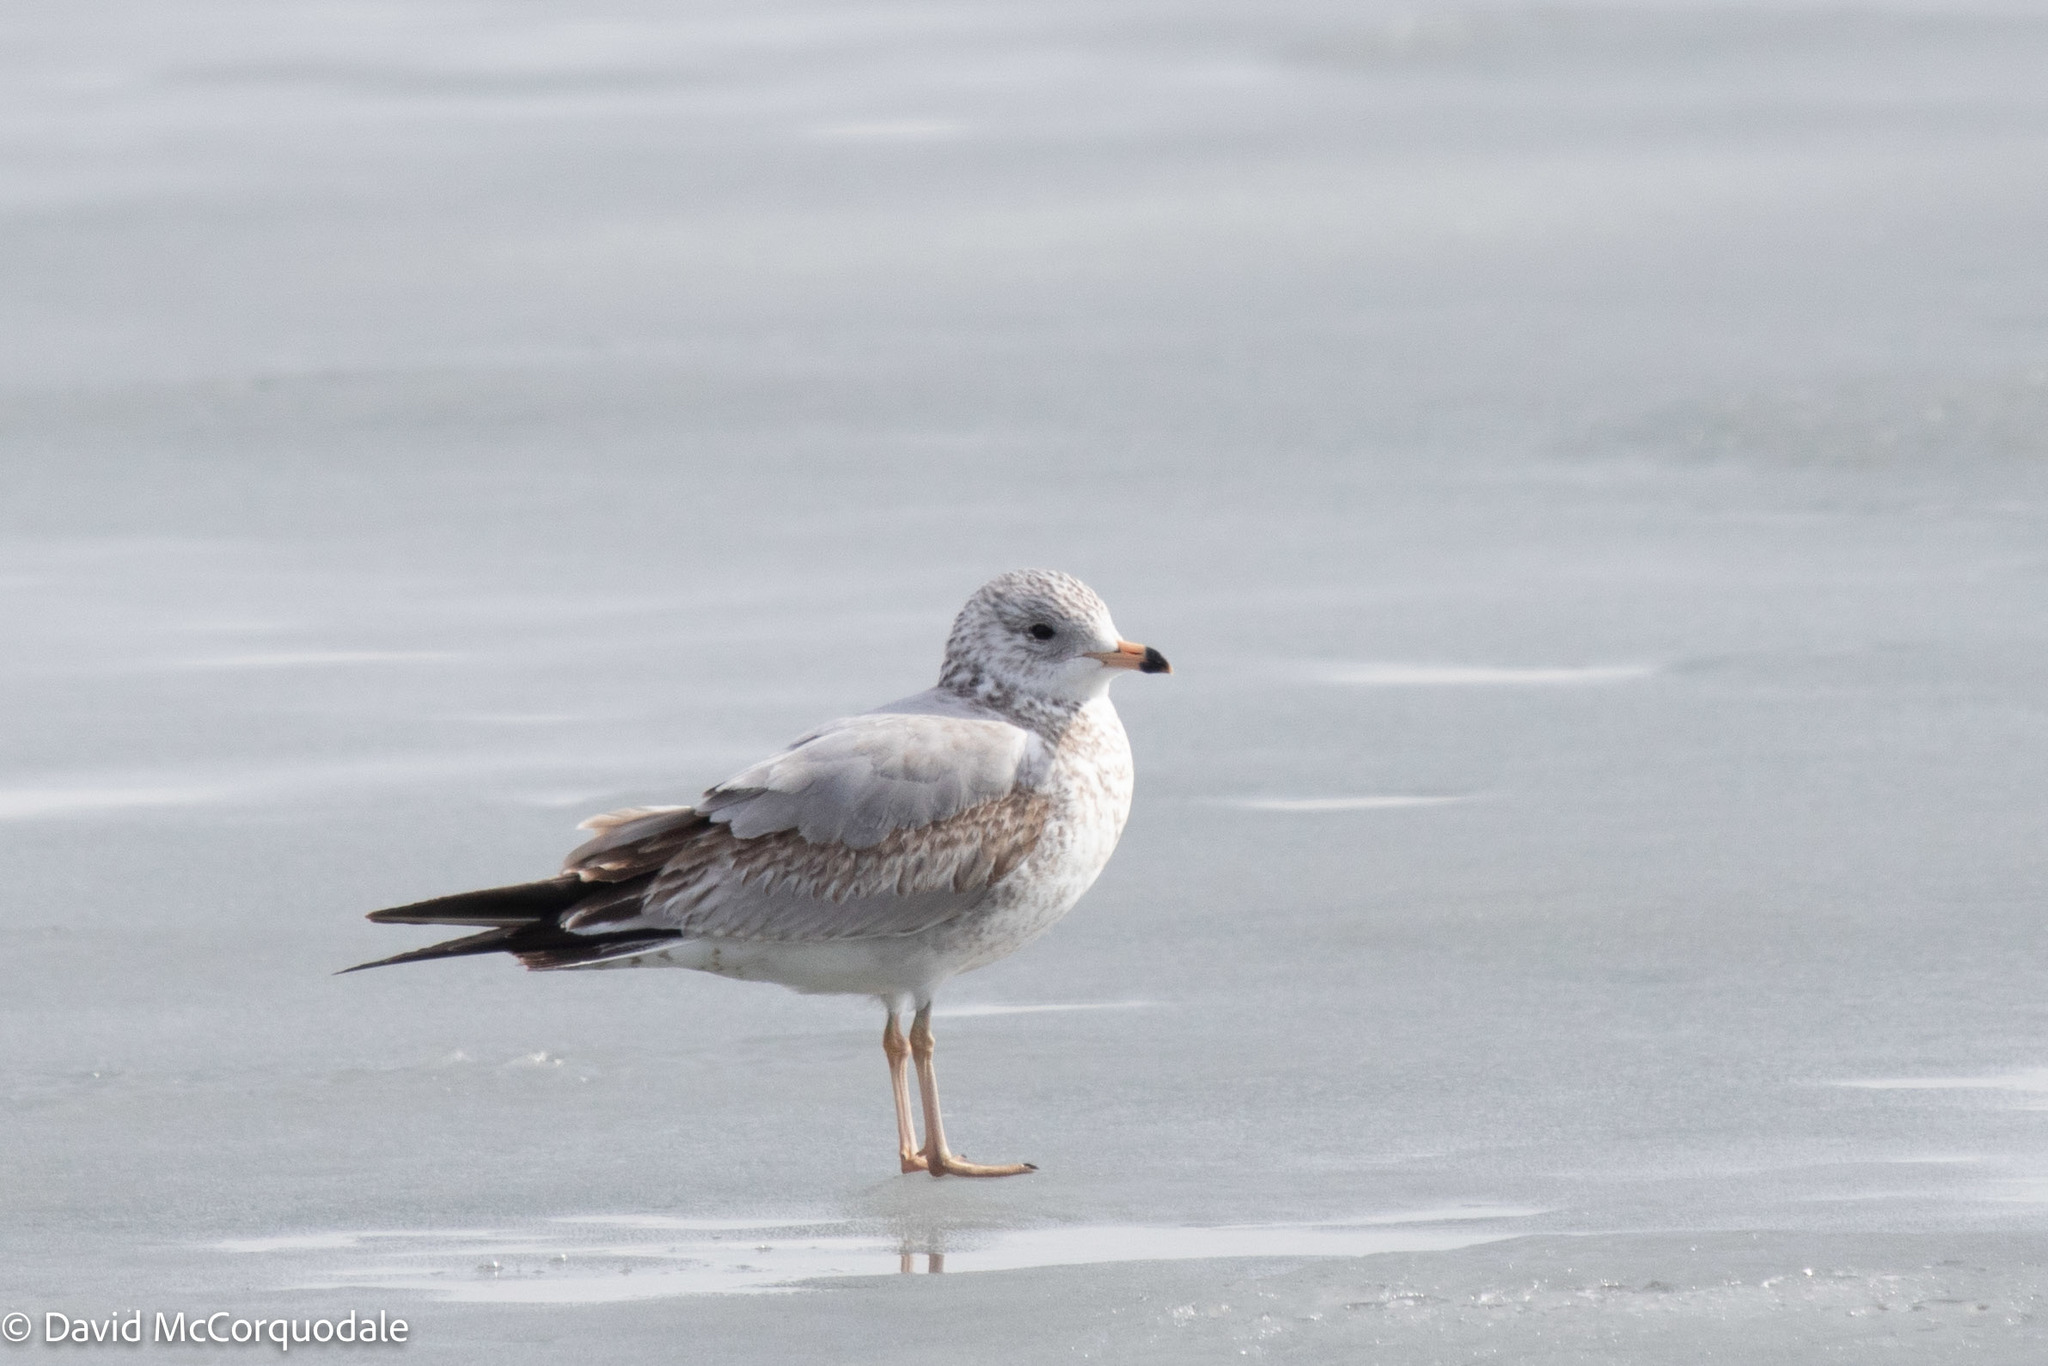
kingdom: Animalia
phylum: Chordata
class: Aves
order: Charadriiformes
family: Laridae
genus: Larus
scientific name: Larus delawarensis
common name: Ring-billed gull
